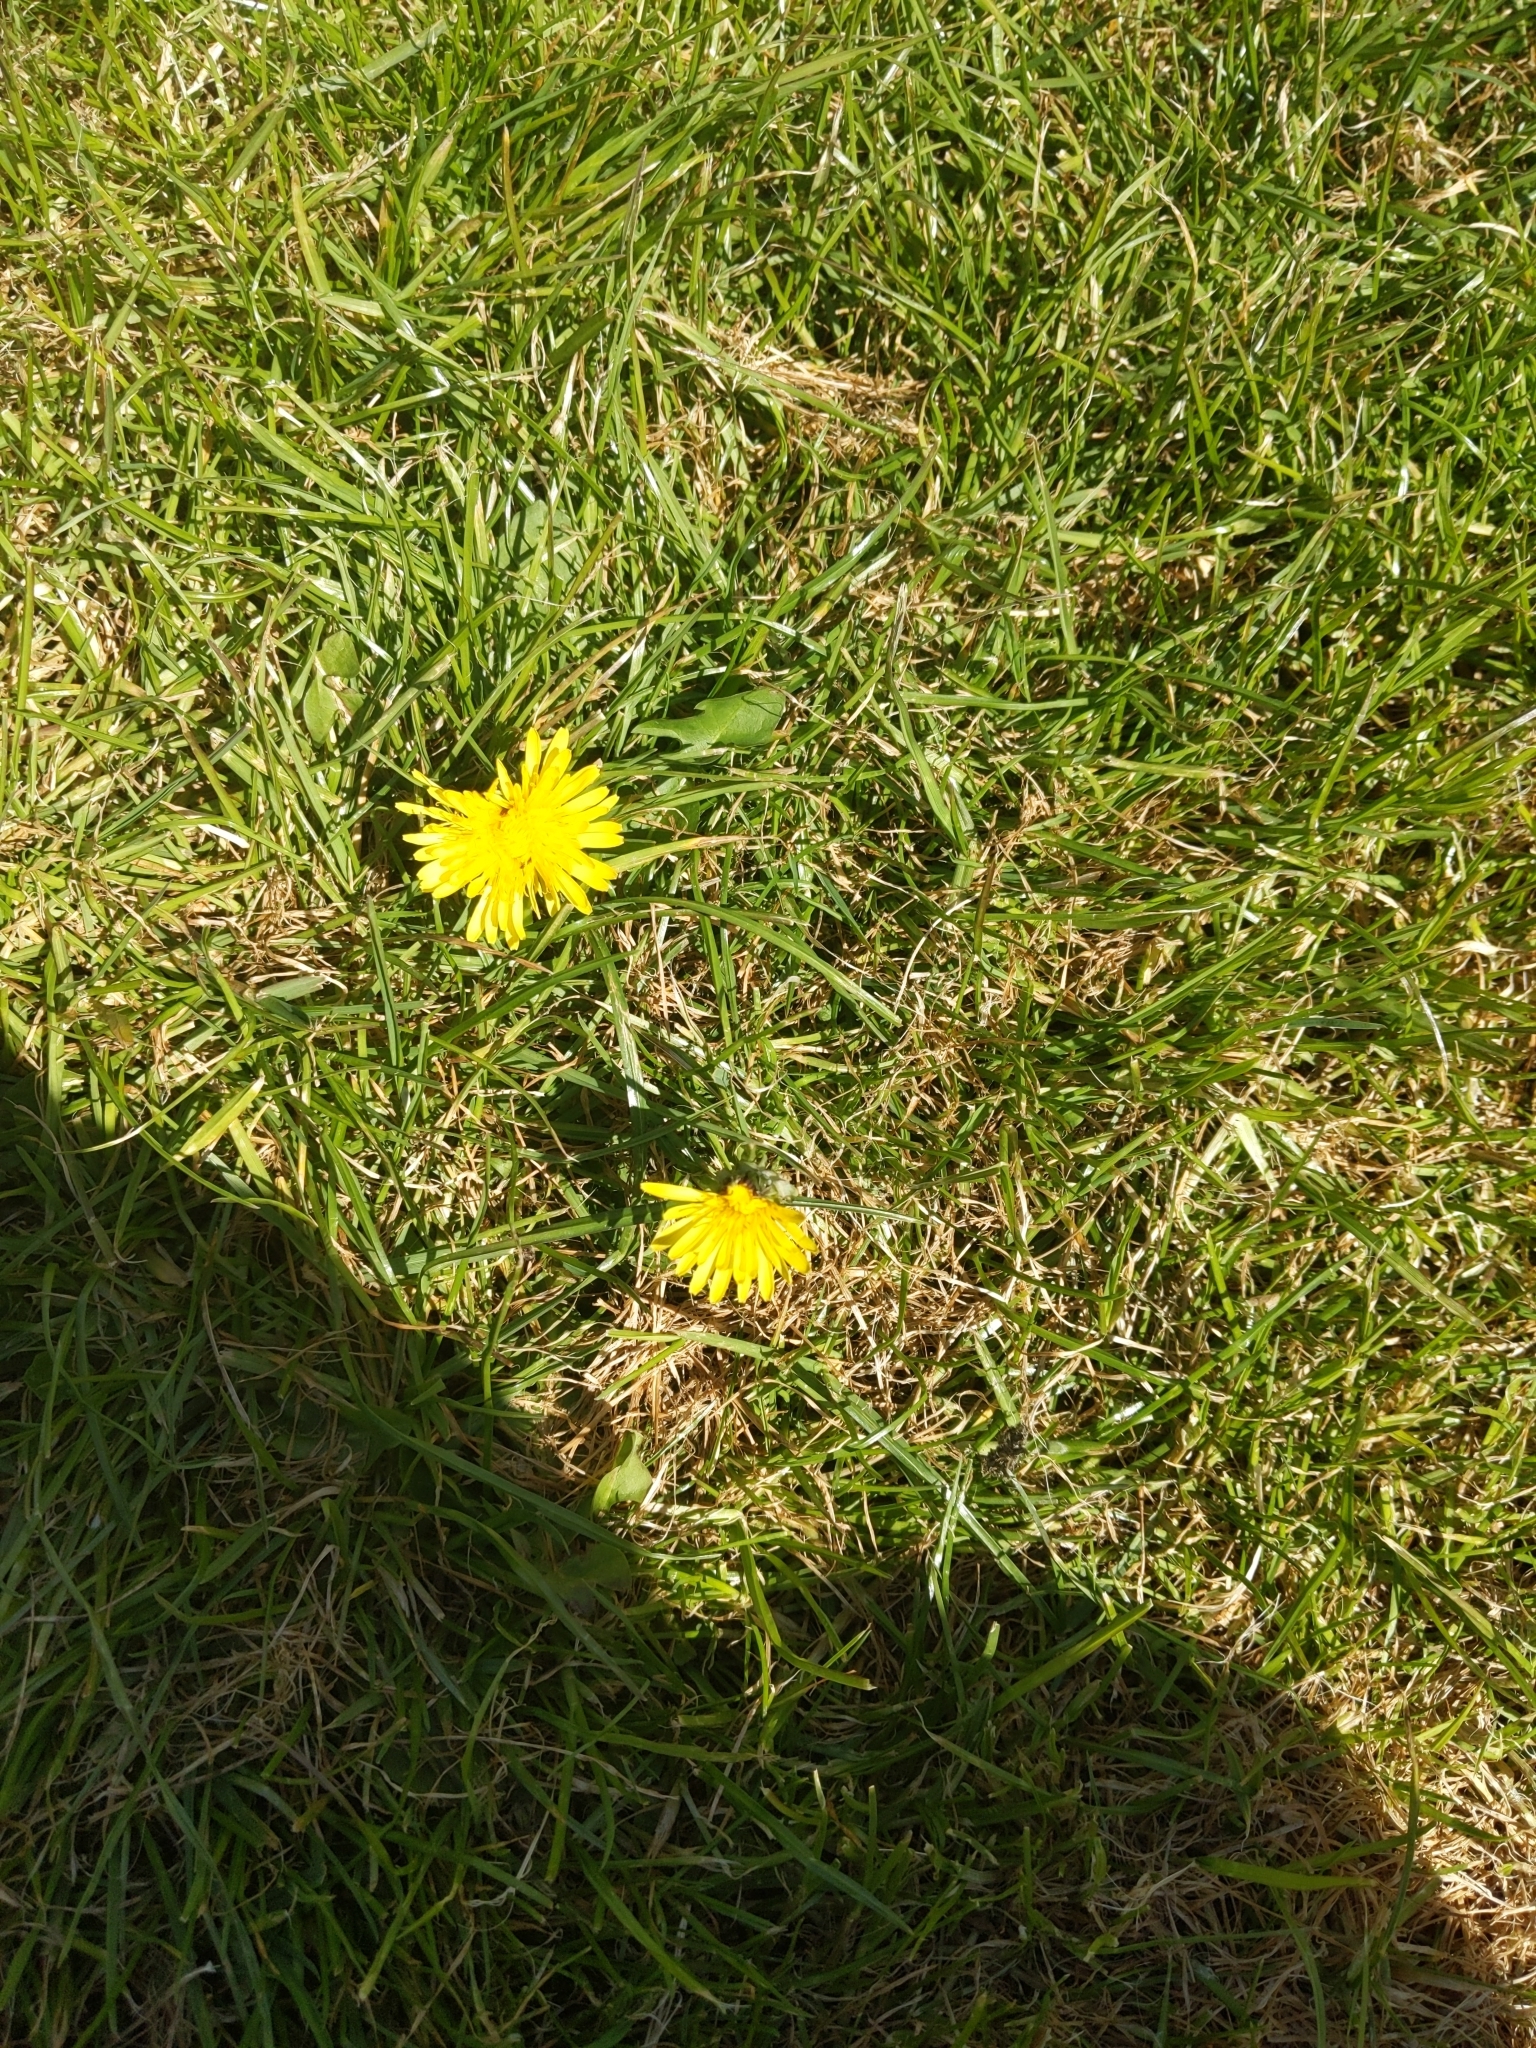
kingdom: Plantae
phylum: Tracheophyta
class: Magnoliopsida
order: Asterales
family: Asteraceae
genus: Taraxacum
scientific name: Taraxacum officinale
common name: Common dandelion
